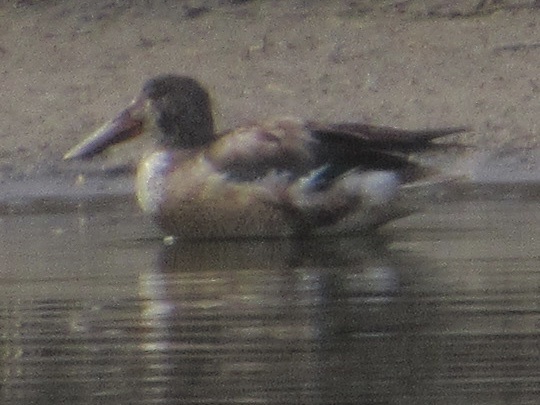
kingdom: Animalia
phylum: Chordata
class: Aves
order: Anseriformes
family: Anatidae
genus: Spatula
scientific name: Spatula clypeata
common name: Northern shoveler
